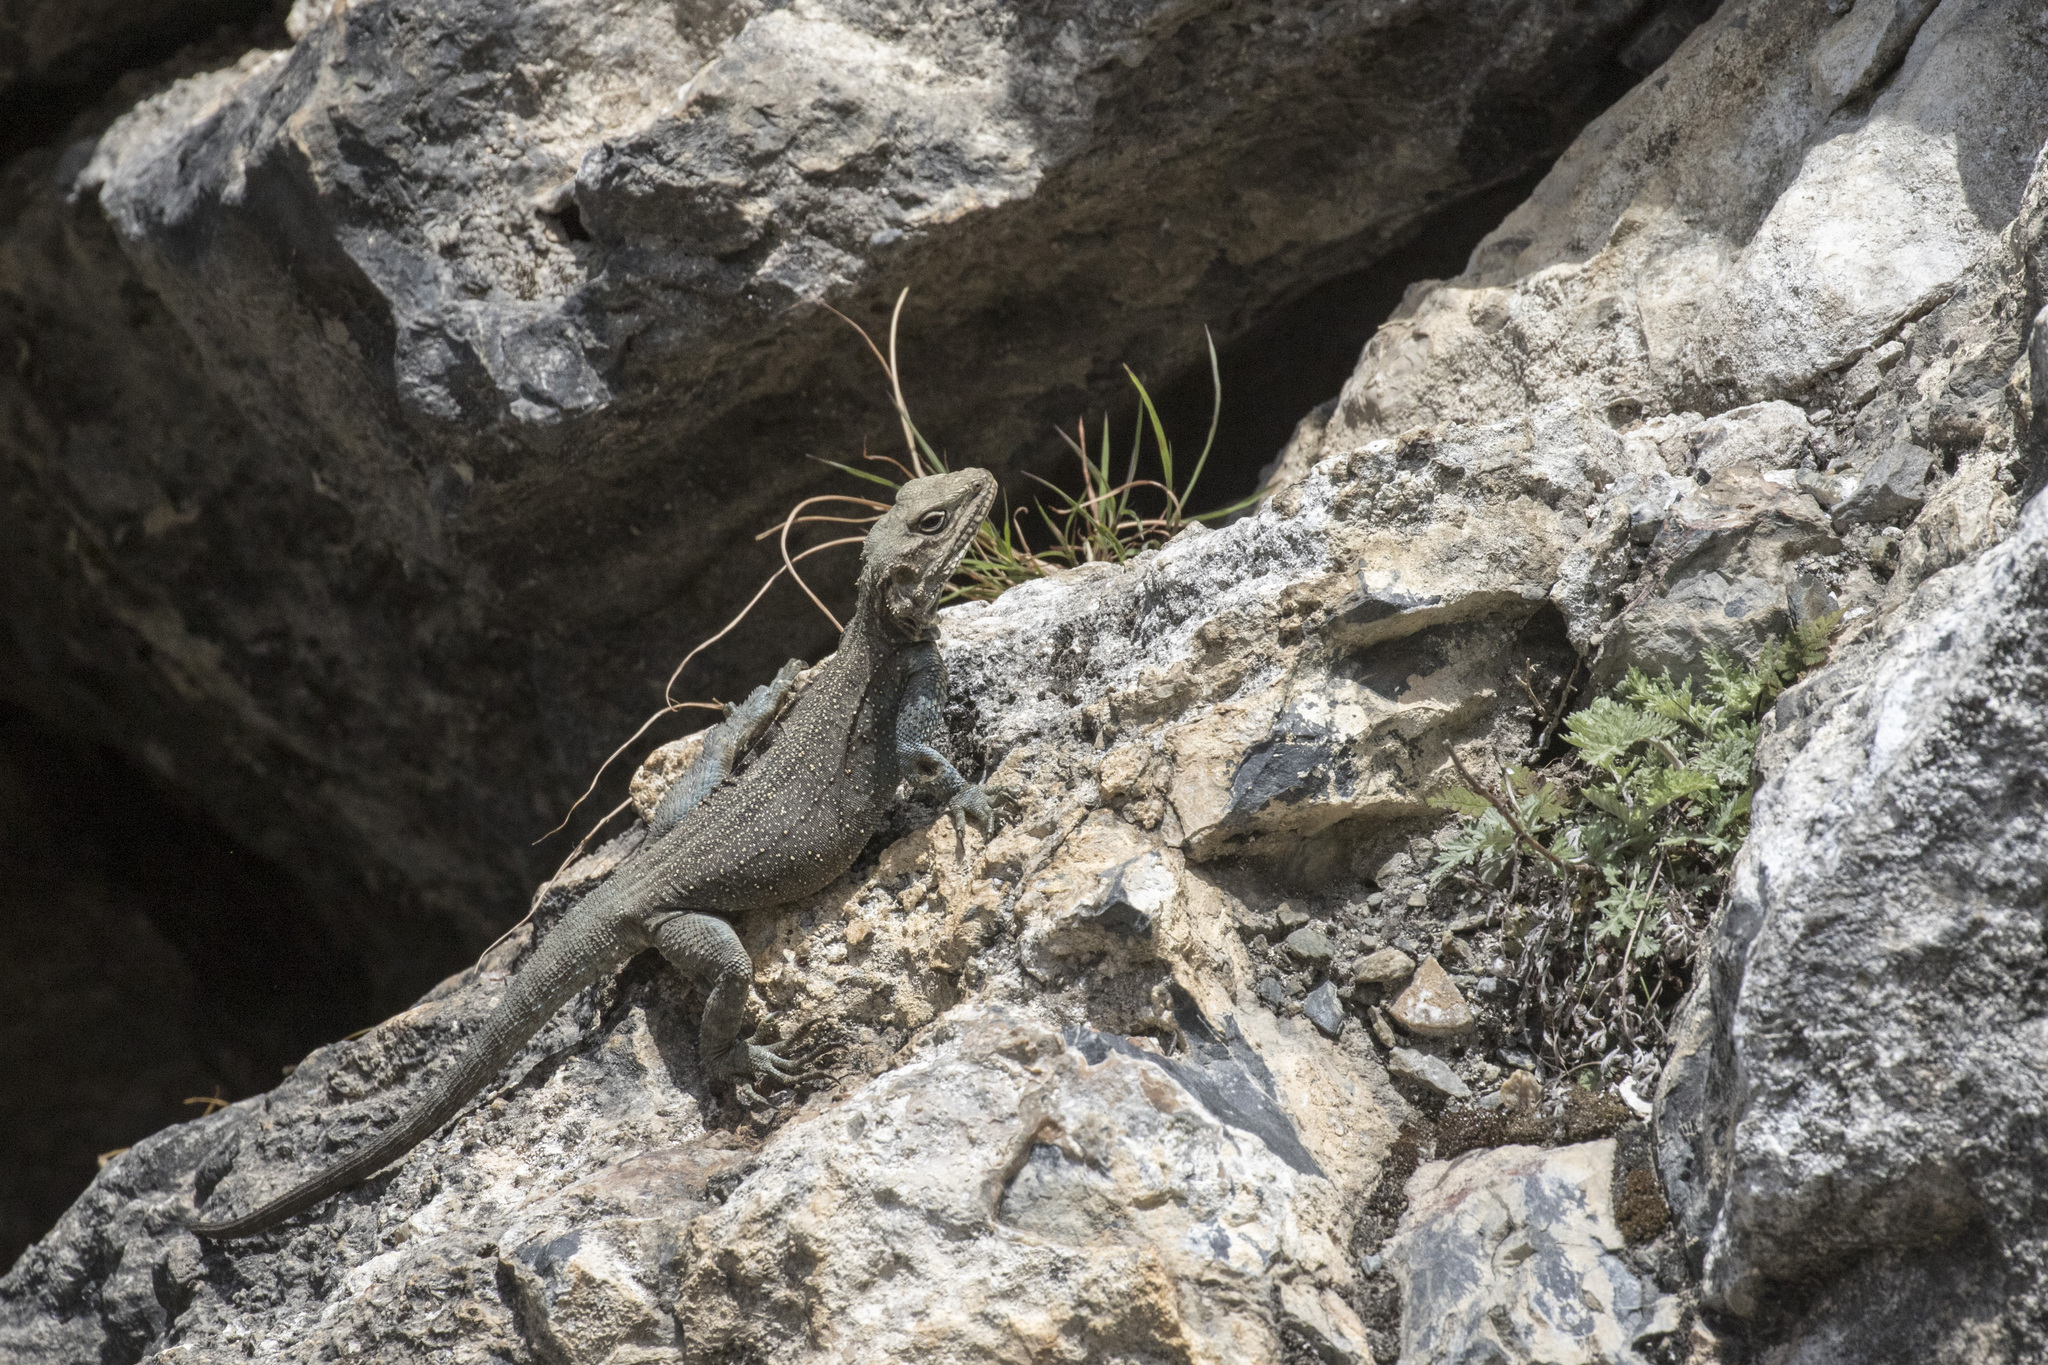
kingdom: Animalia
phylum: Chordata
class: Squamata
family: Agamidae
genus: Laudakia
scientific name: Laudakia tuberculata
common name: Kashmir rock agama
